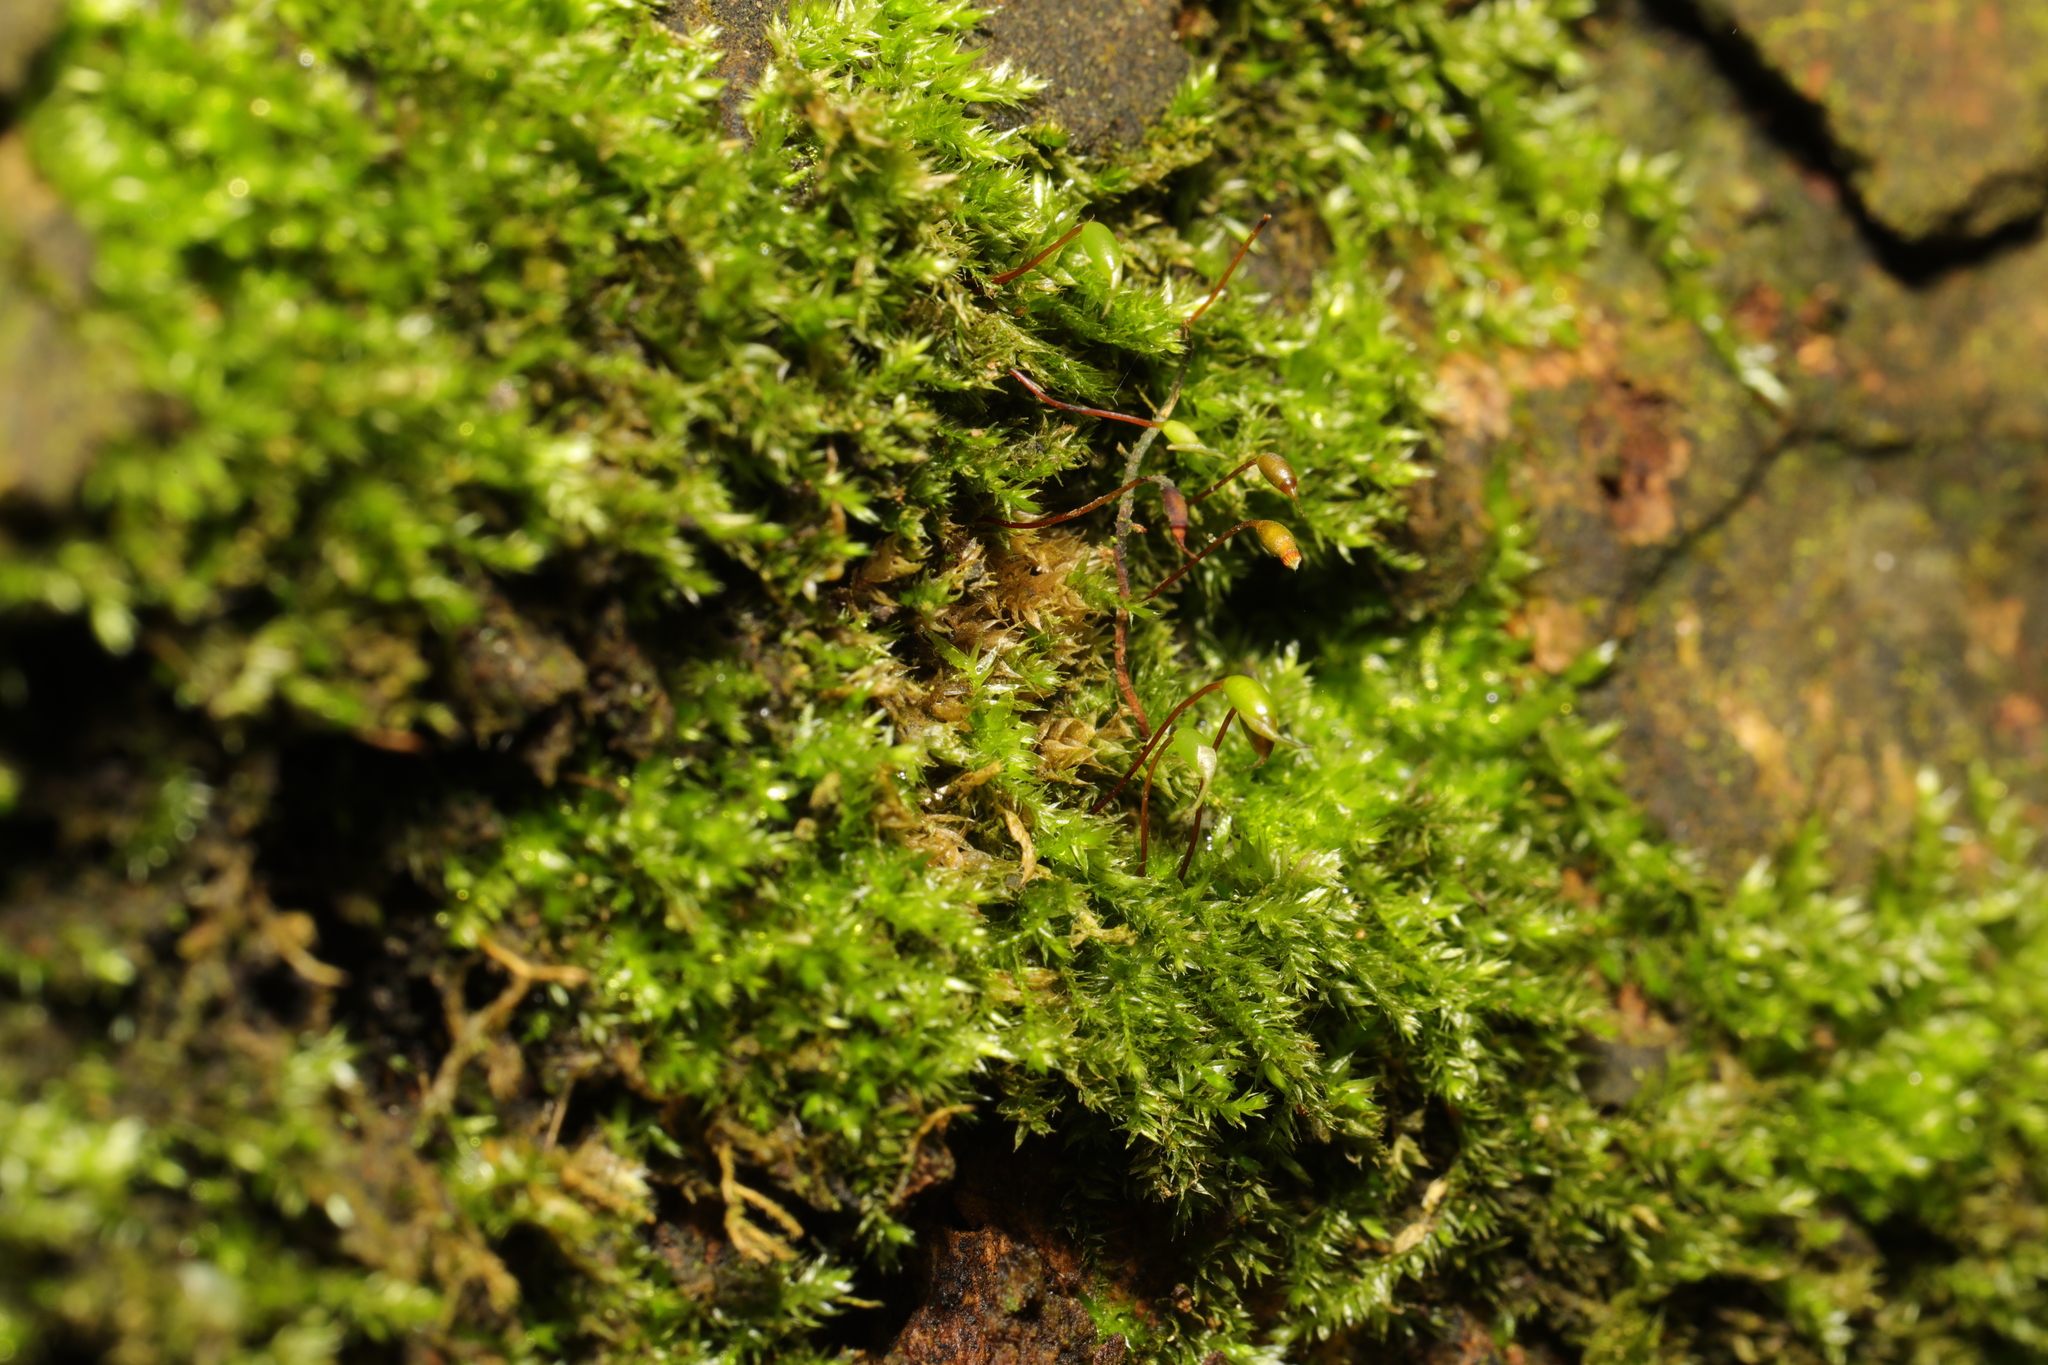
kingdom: Plantae
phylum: Bryophyta
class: Bryopsida
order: Hypnales
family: Brachytheciaceae
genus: Rhynchostegium
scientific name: Rhynchostegium confertum
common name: Clustered feather-moss
